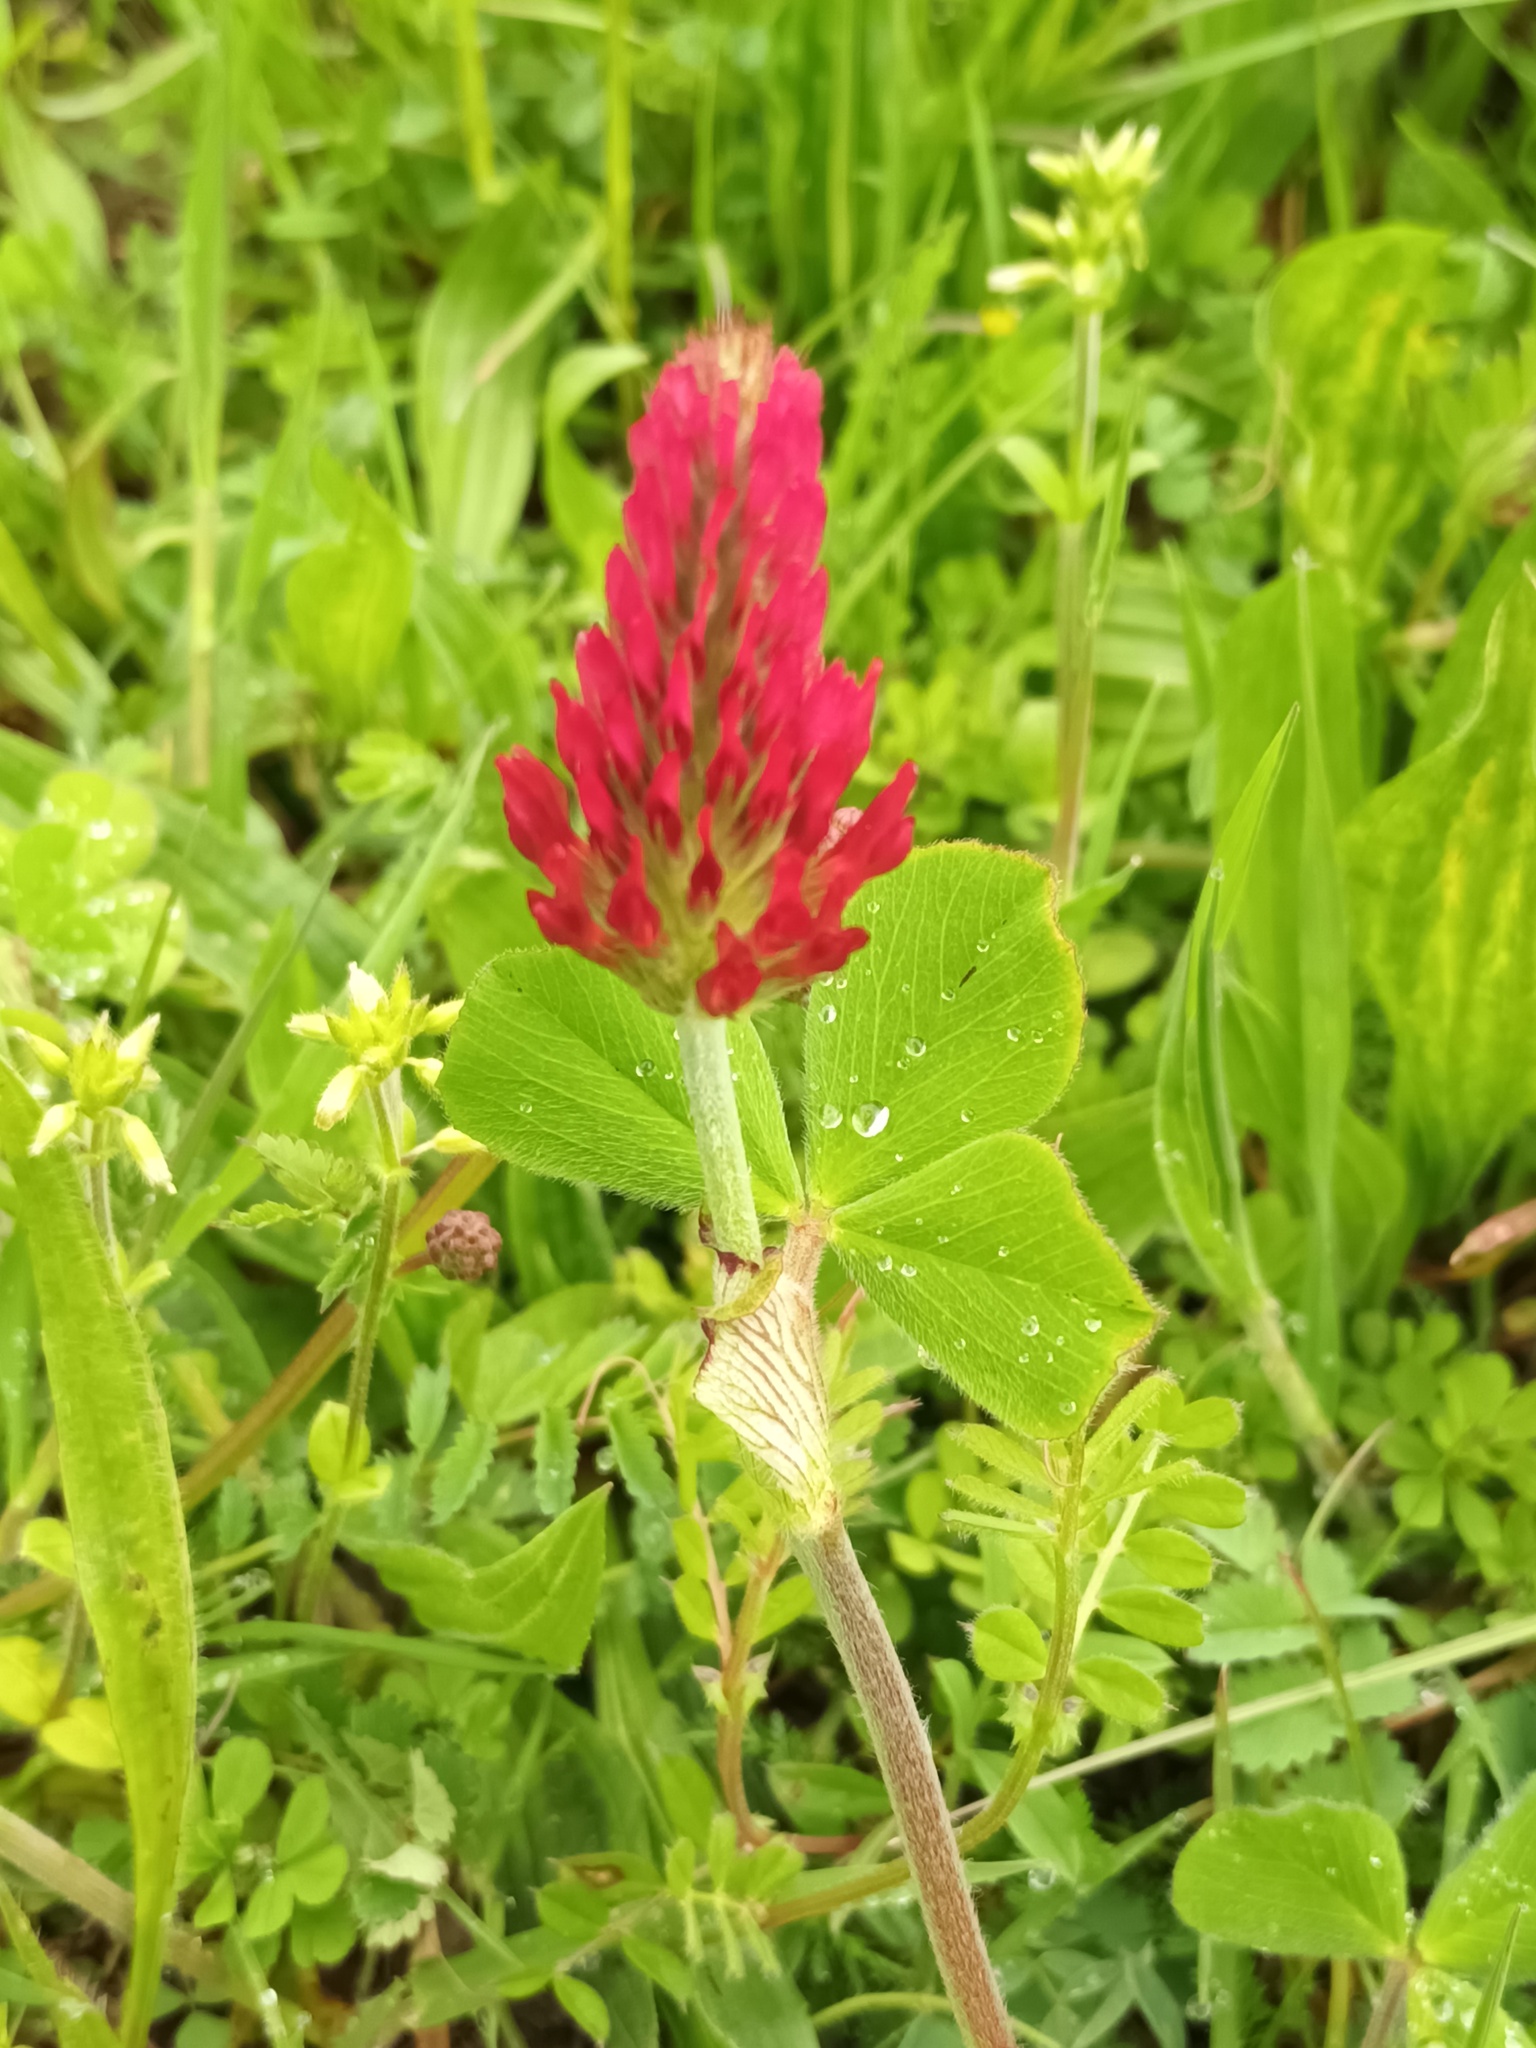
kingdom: Plantae
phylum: Tracheophyta
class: Magnoliopsida
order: Fabales
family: Fabaceae
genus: Trifolium
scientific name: Trifolium incarnatum
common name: Crimson clover
